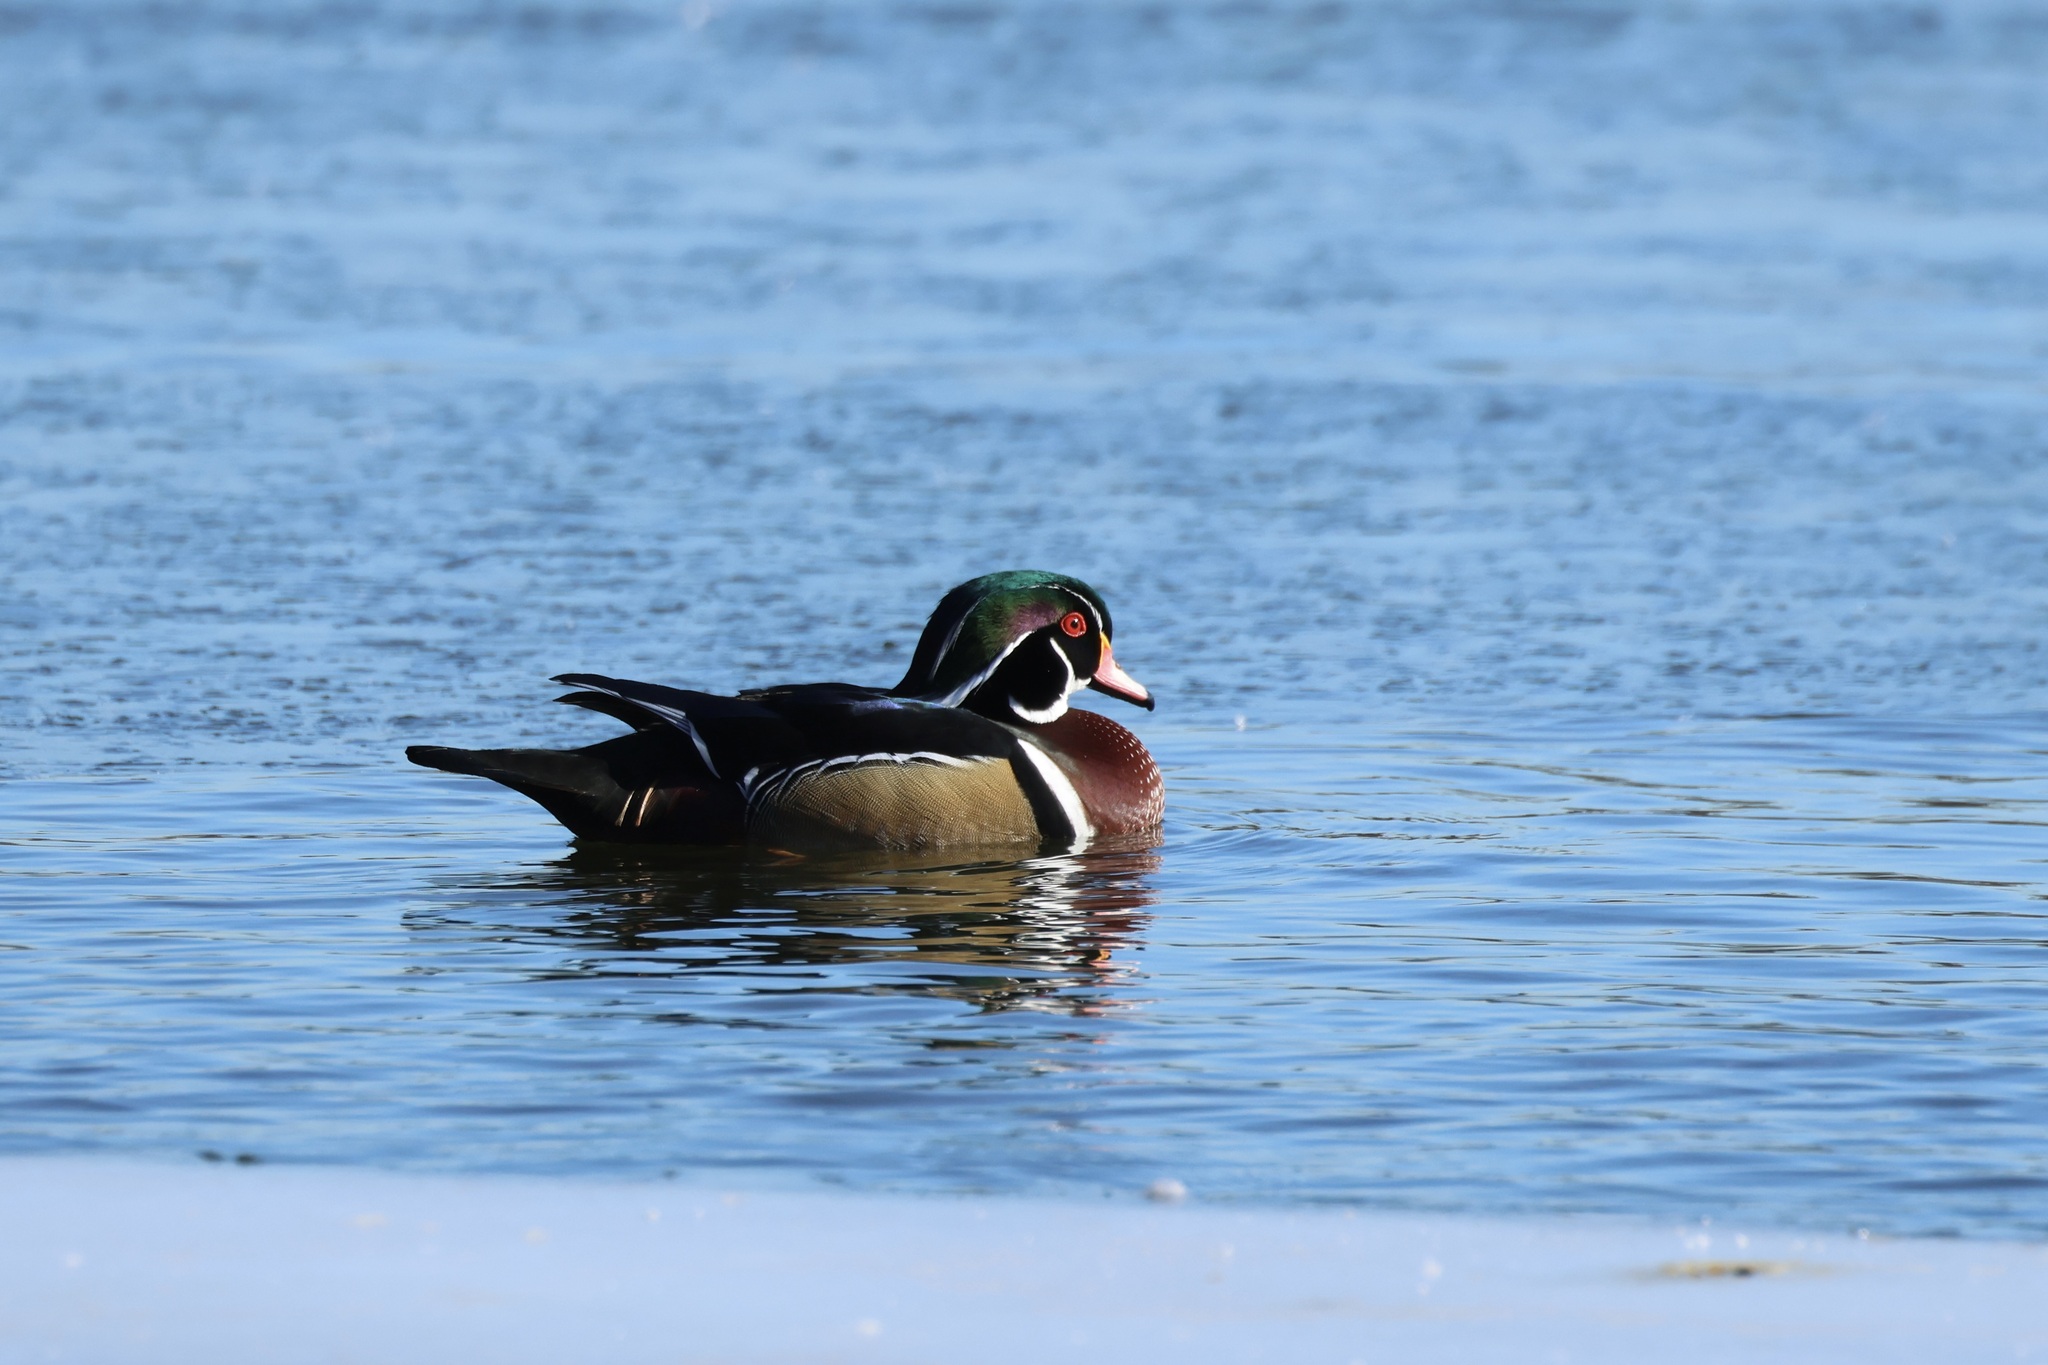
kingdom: Animalia
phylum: Chordata
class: Aves
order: Anseriformes
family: Anatidae
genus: Aix
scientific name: Aix sponsa
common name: Wood duck
